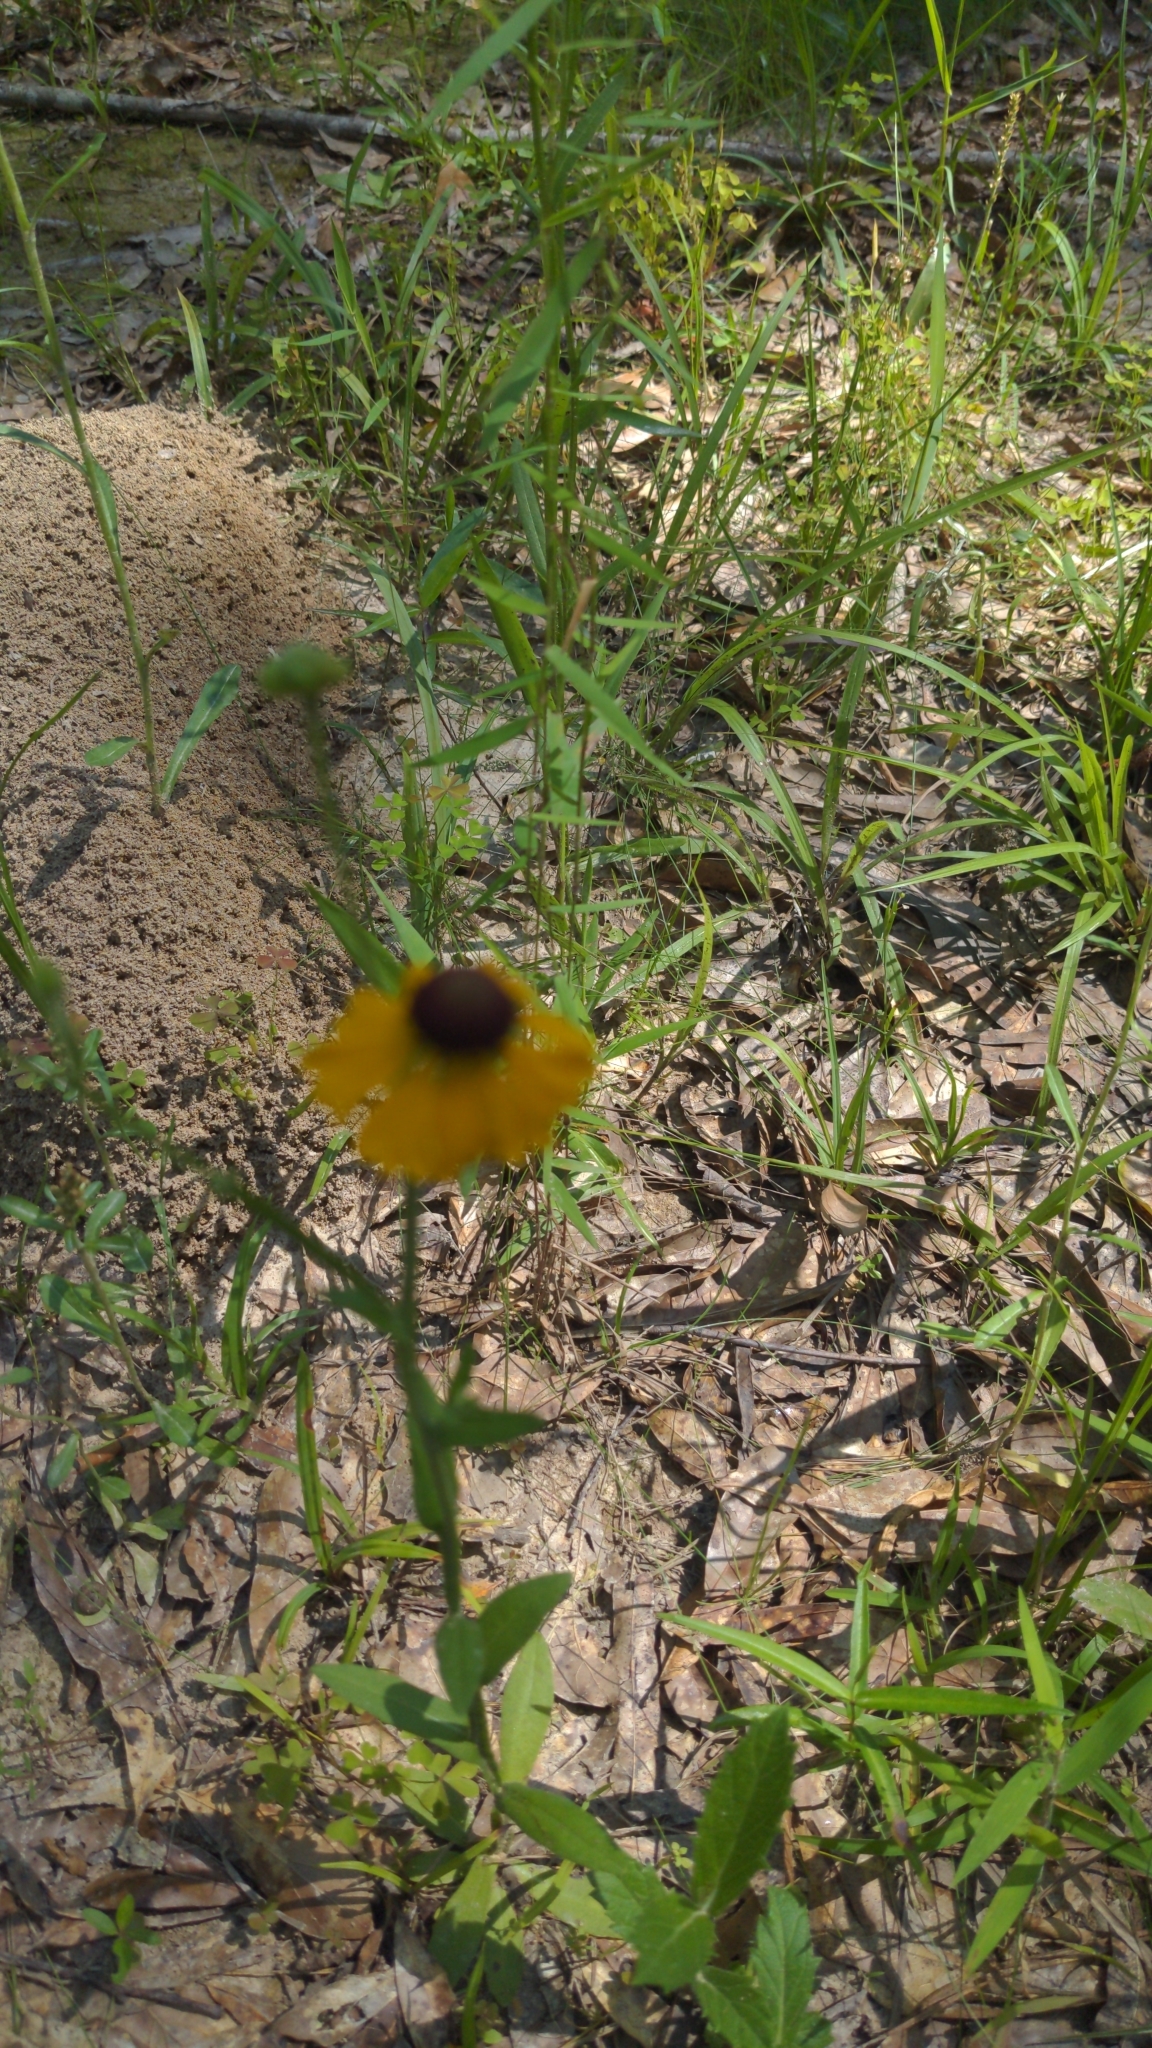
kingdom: Plantae
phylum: Tracheophyta
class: Magnoliopsida
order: Asterales
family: Asteraceae
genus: Rudbeckia
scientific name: Rudbeckia hirta
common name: Black-eyed-susan
